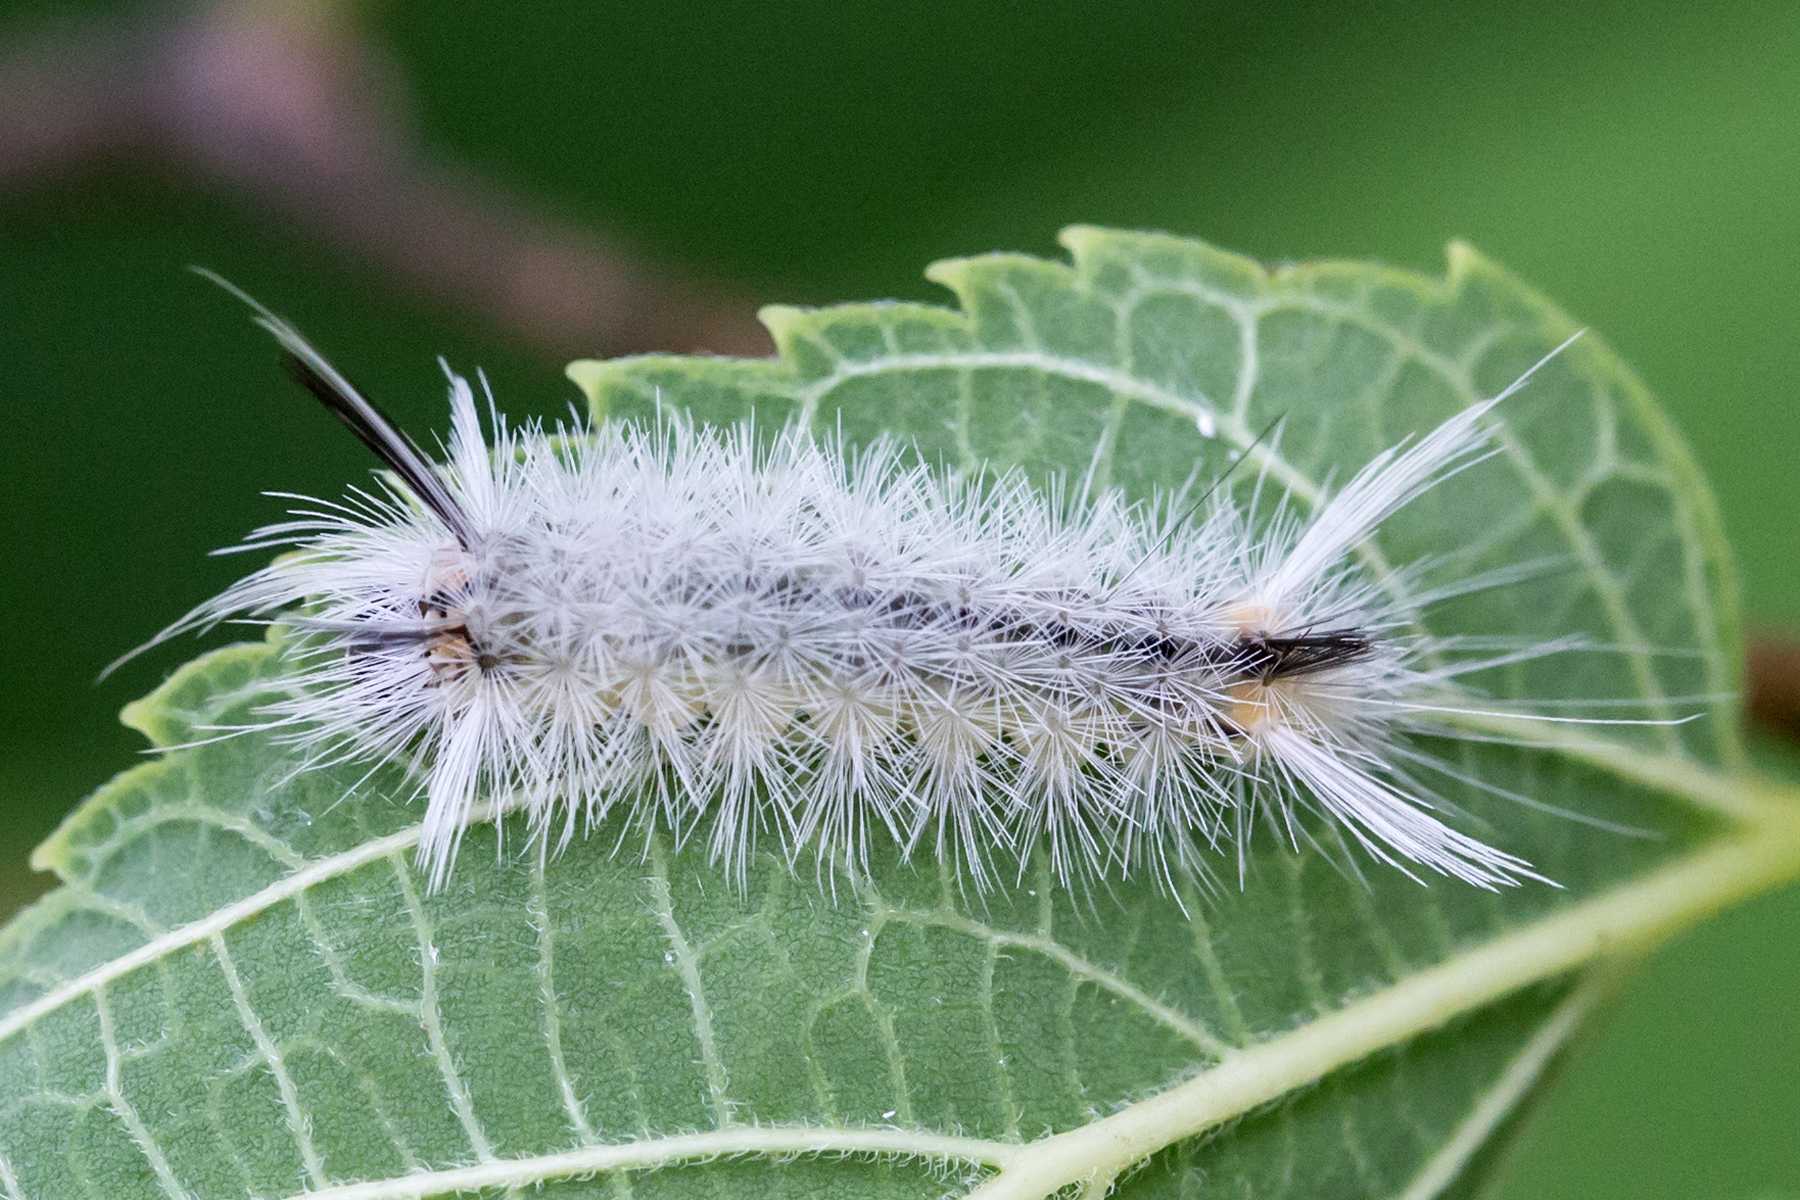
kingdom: Animalia
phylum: Arthropoda
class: Insecta
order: Lepidoptera
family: Erebidae
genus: Halysidota
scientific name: Halysidota tessellaris
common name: Banded tussock moth
